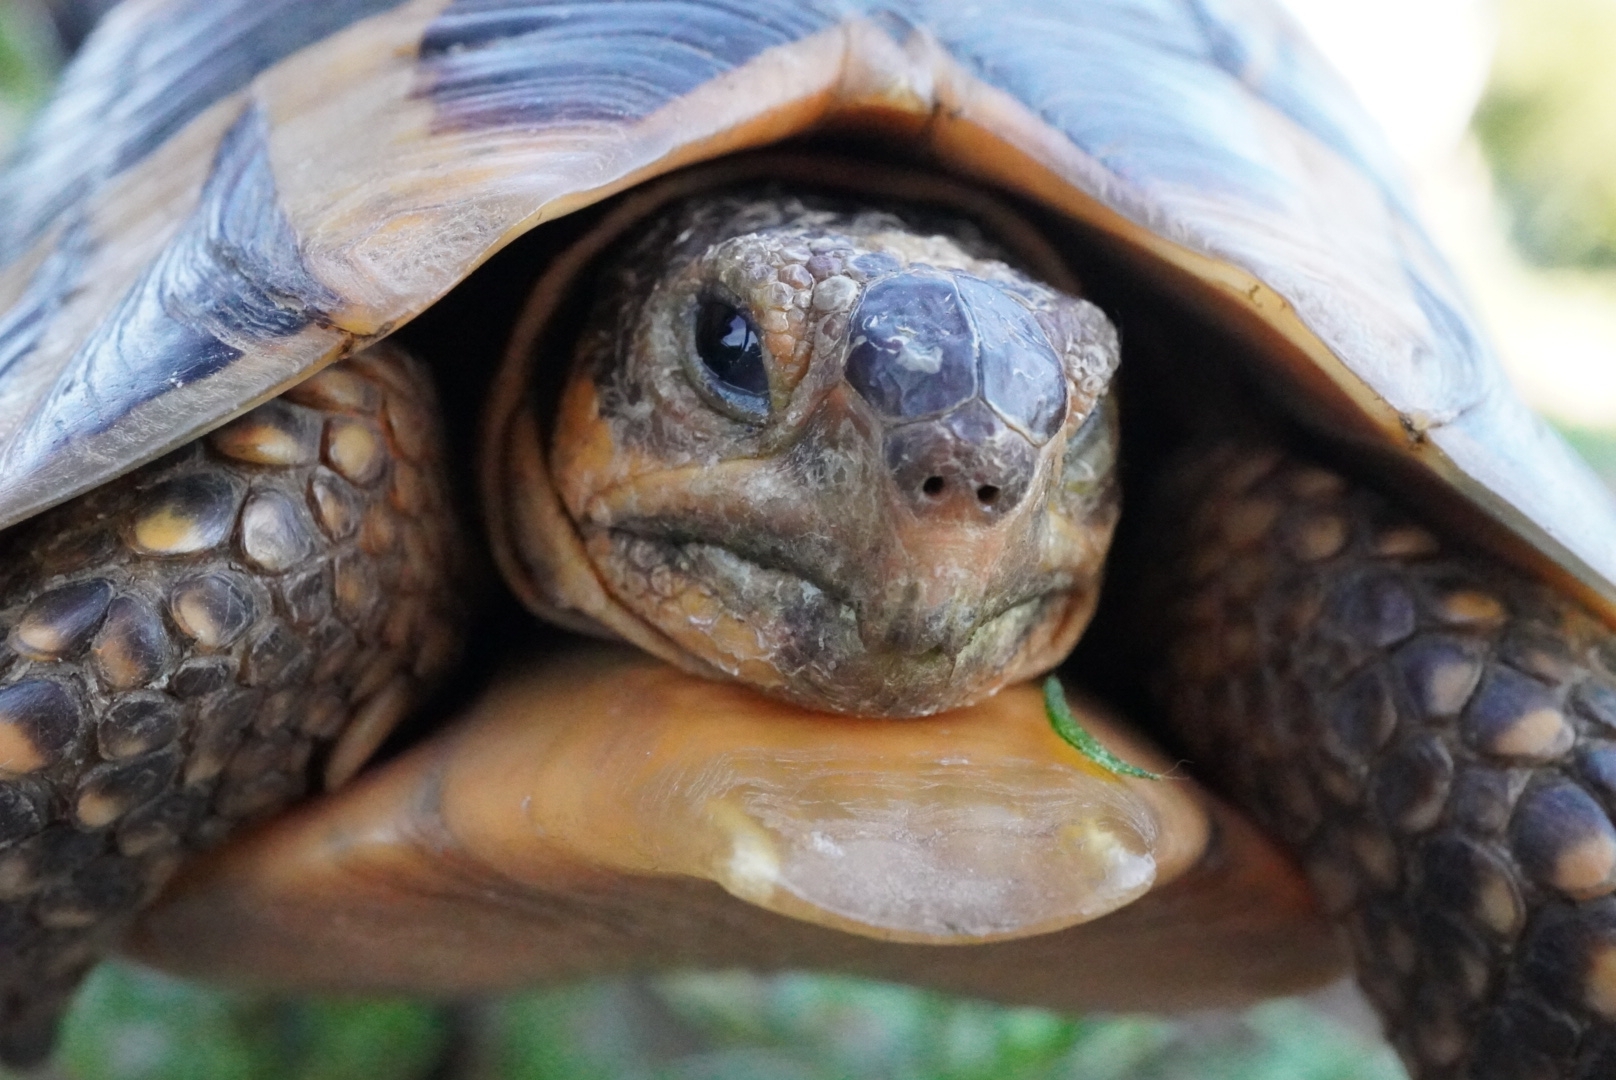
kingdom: Animalia
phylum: Chordata
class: Testudines
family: Testudinidae
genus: Chersina
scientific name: Chersina angulata
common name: South african bowsprit tortoise
